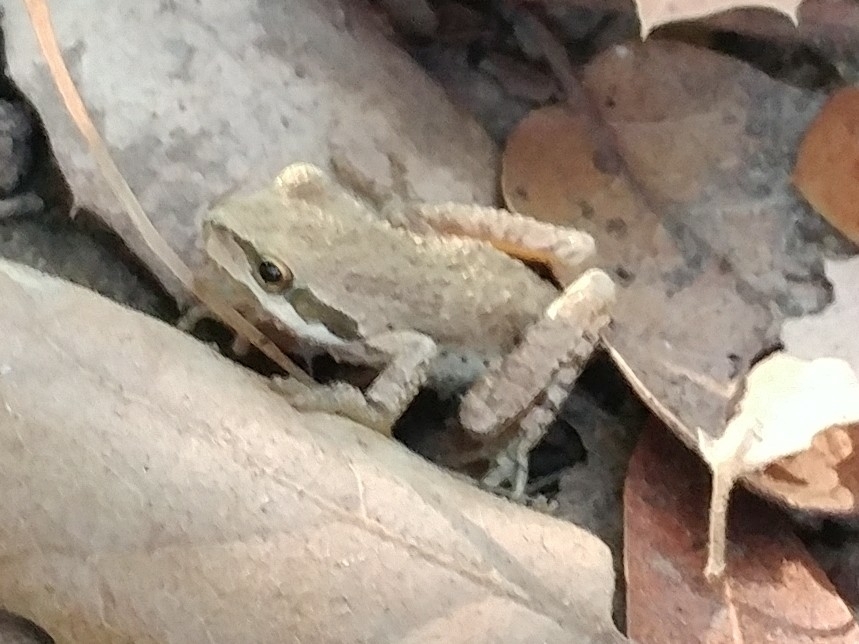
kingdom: Animalia
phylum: Chordata
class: Amphibia
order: Anura
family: Hylidae
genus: Pseudacris
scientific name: Pseudacris regilla
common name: Pacific chorus frog
